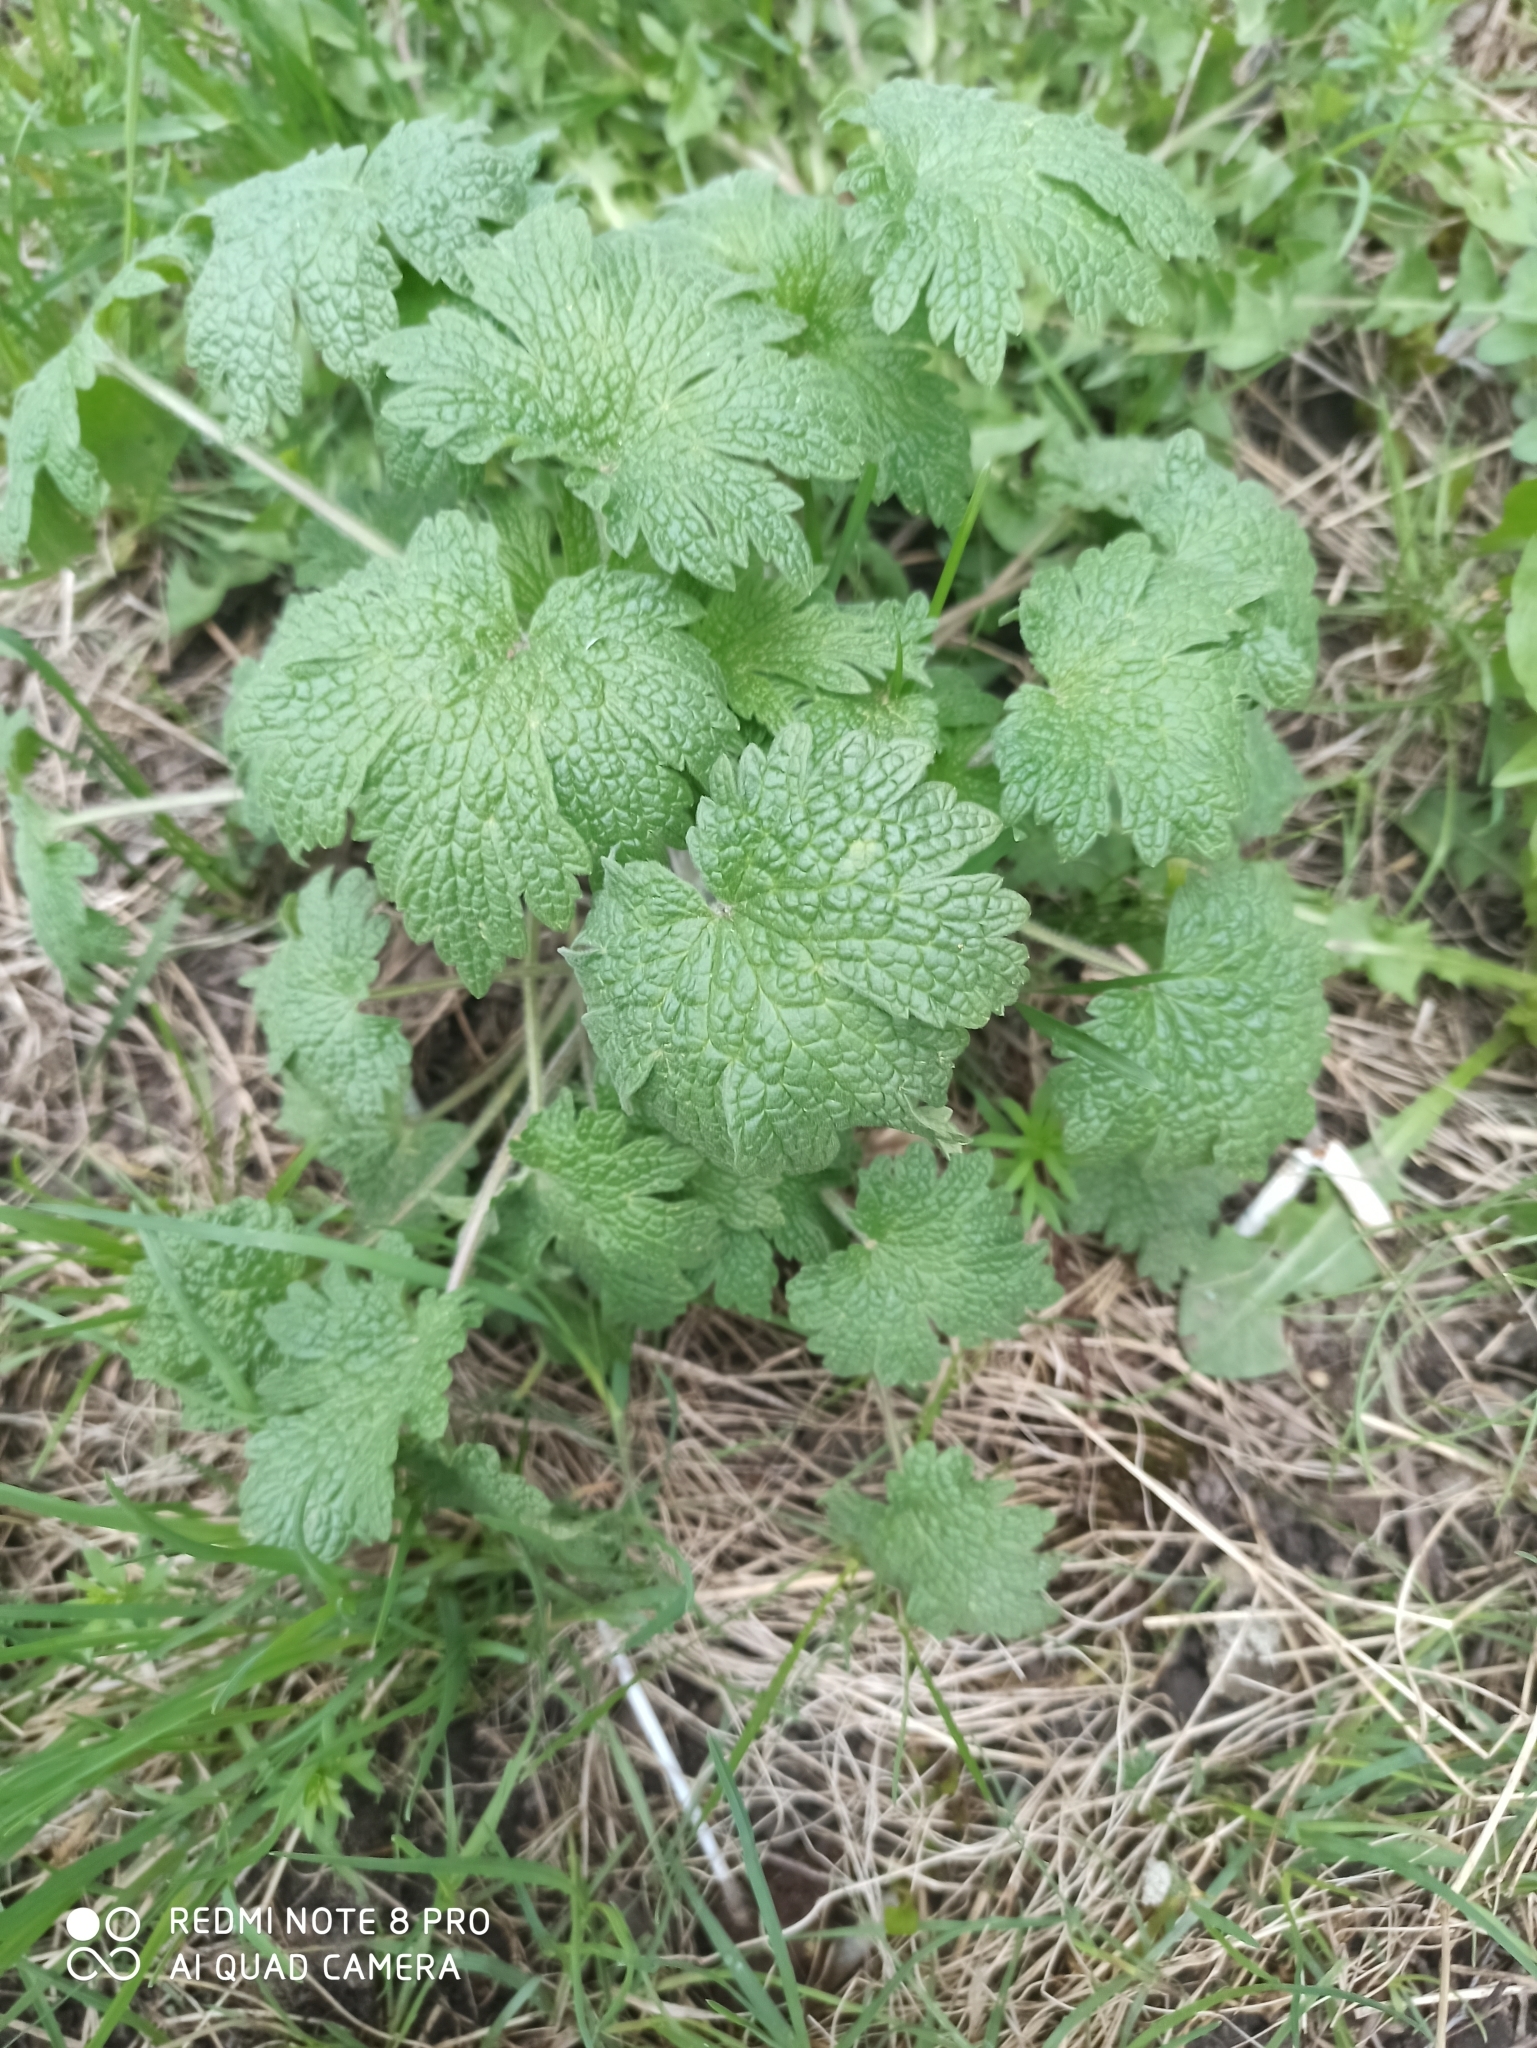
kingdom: Plantae
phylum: Tracheophyta
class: Magnoliopsida
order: Lamiales
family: Lamiaceae
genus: Leonurus
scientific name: Leonurus quinquelobatus
